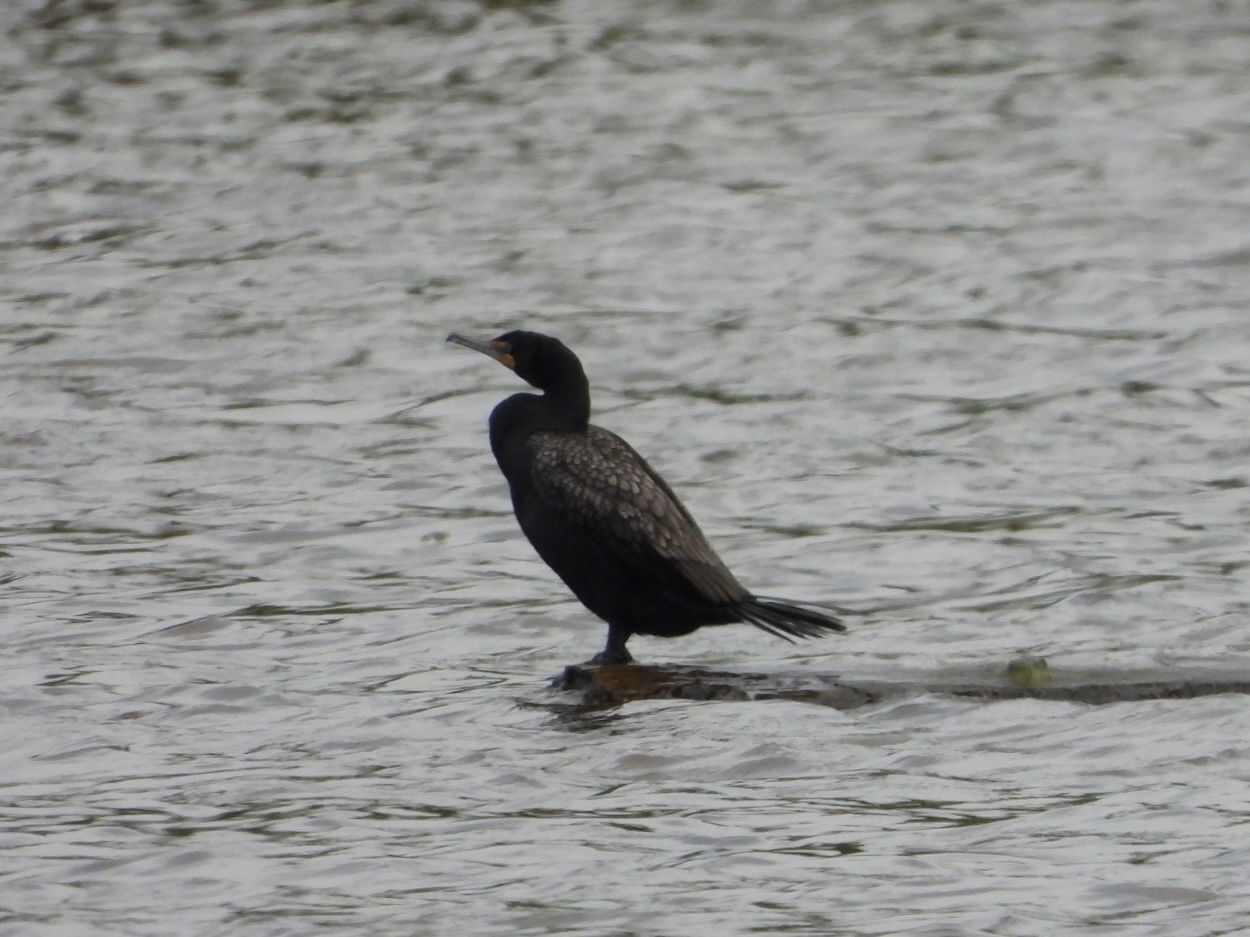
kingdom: Animalia
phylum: Chordata
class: Aves
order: Suliformes
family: Phalacrocoracidae
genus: Phalacrocorax
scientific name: Phalacrocorax auritus
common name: Double-crested cormorant
